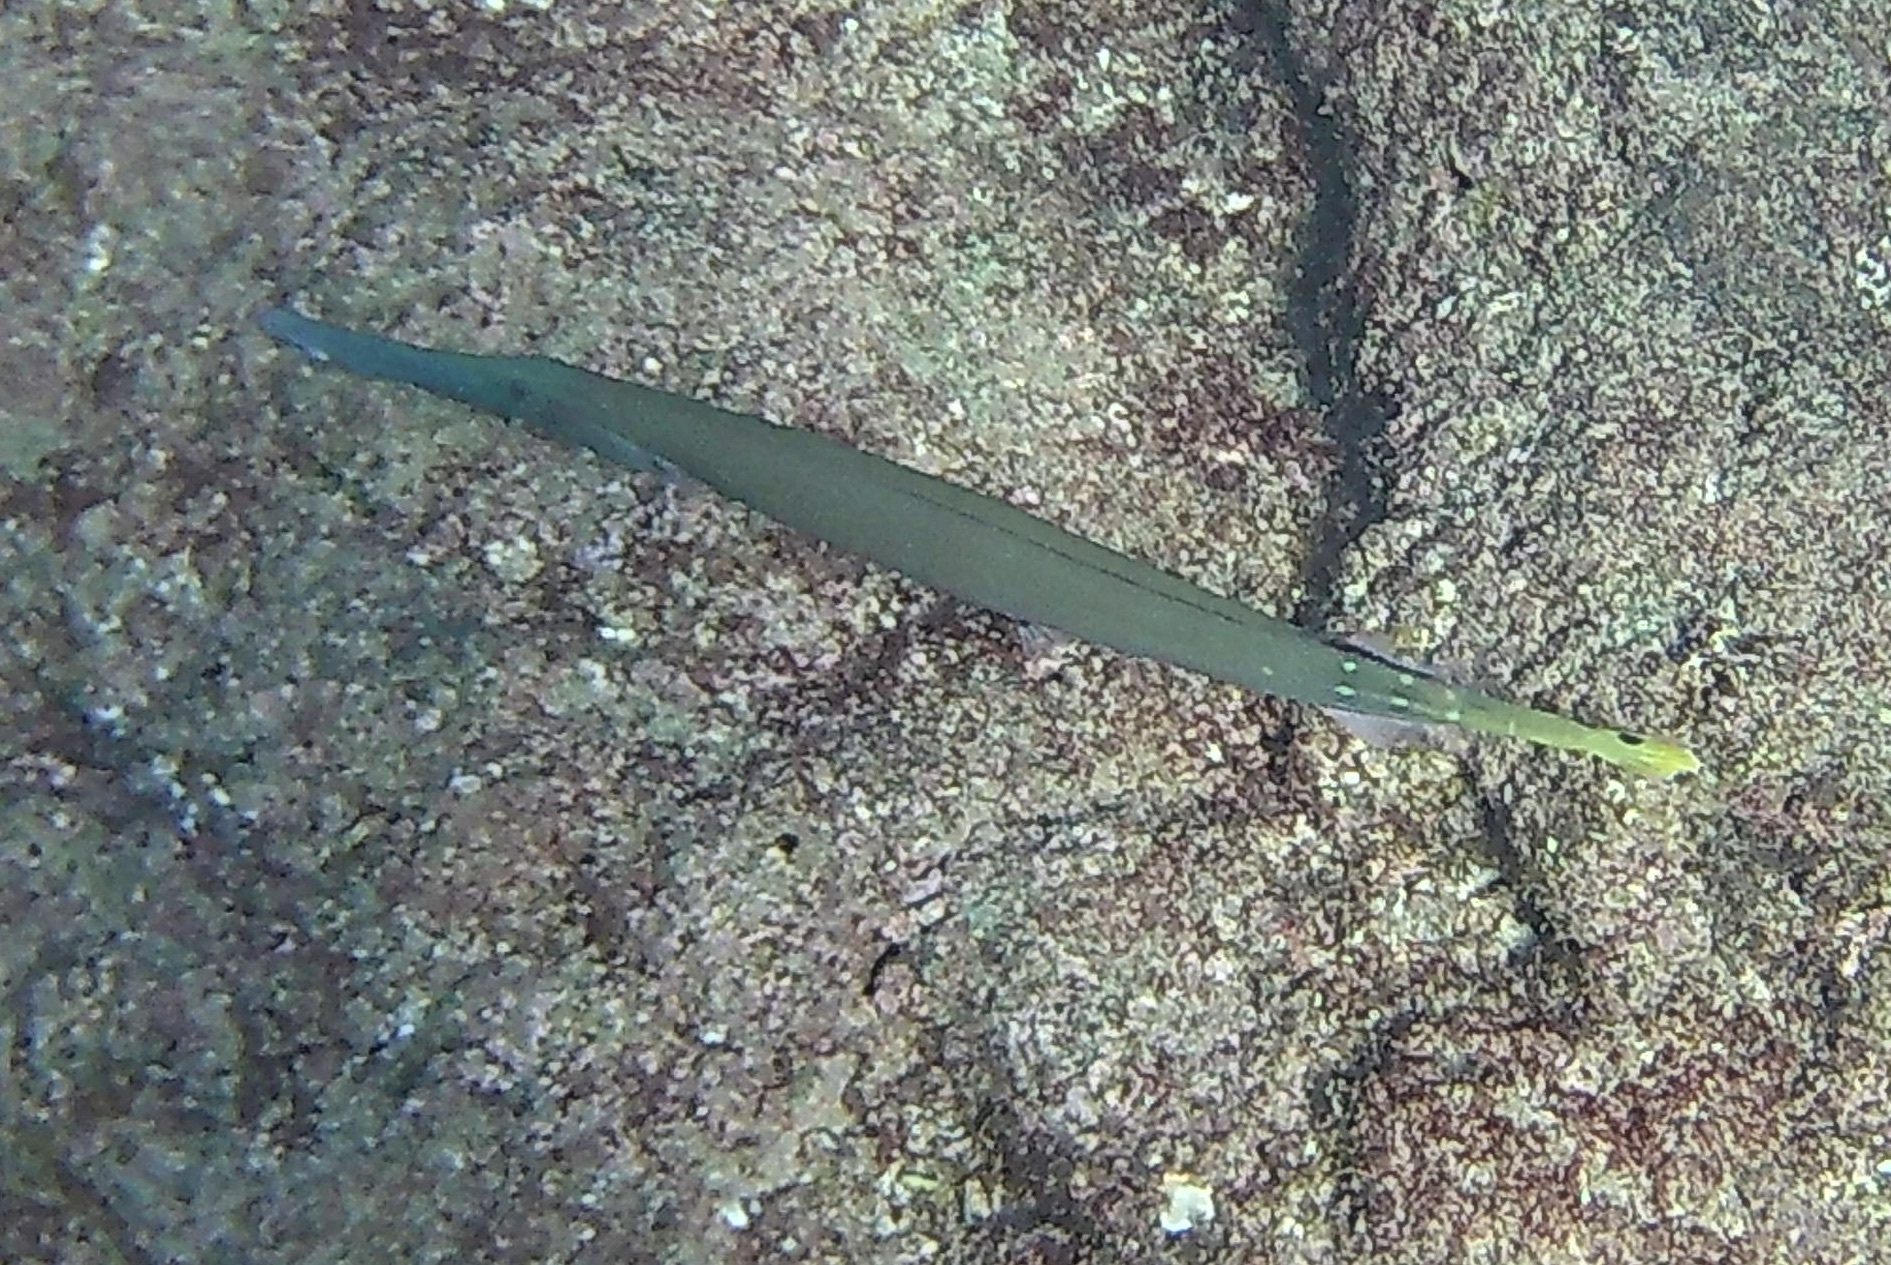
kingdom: Animalia
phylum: Chordata
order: Syngnathiformes
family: Aulostomidae
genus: Aulostomus
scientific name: Aulostomus chinensis
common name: Chinese trumpetfish
